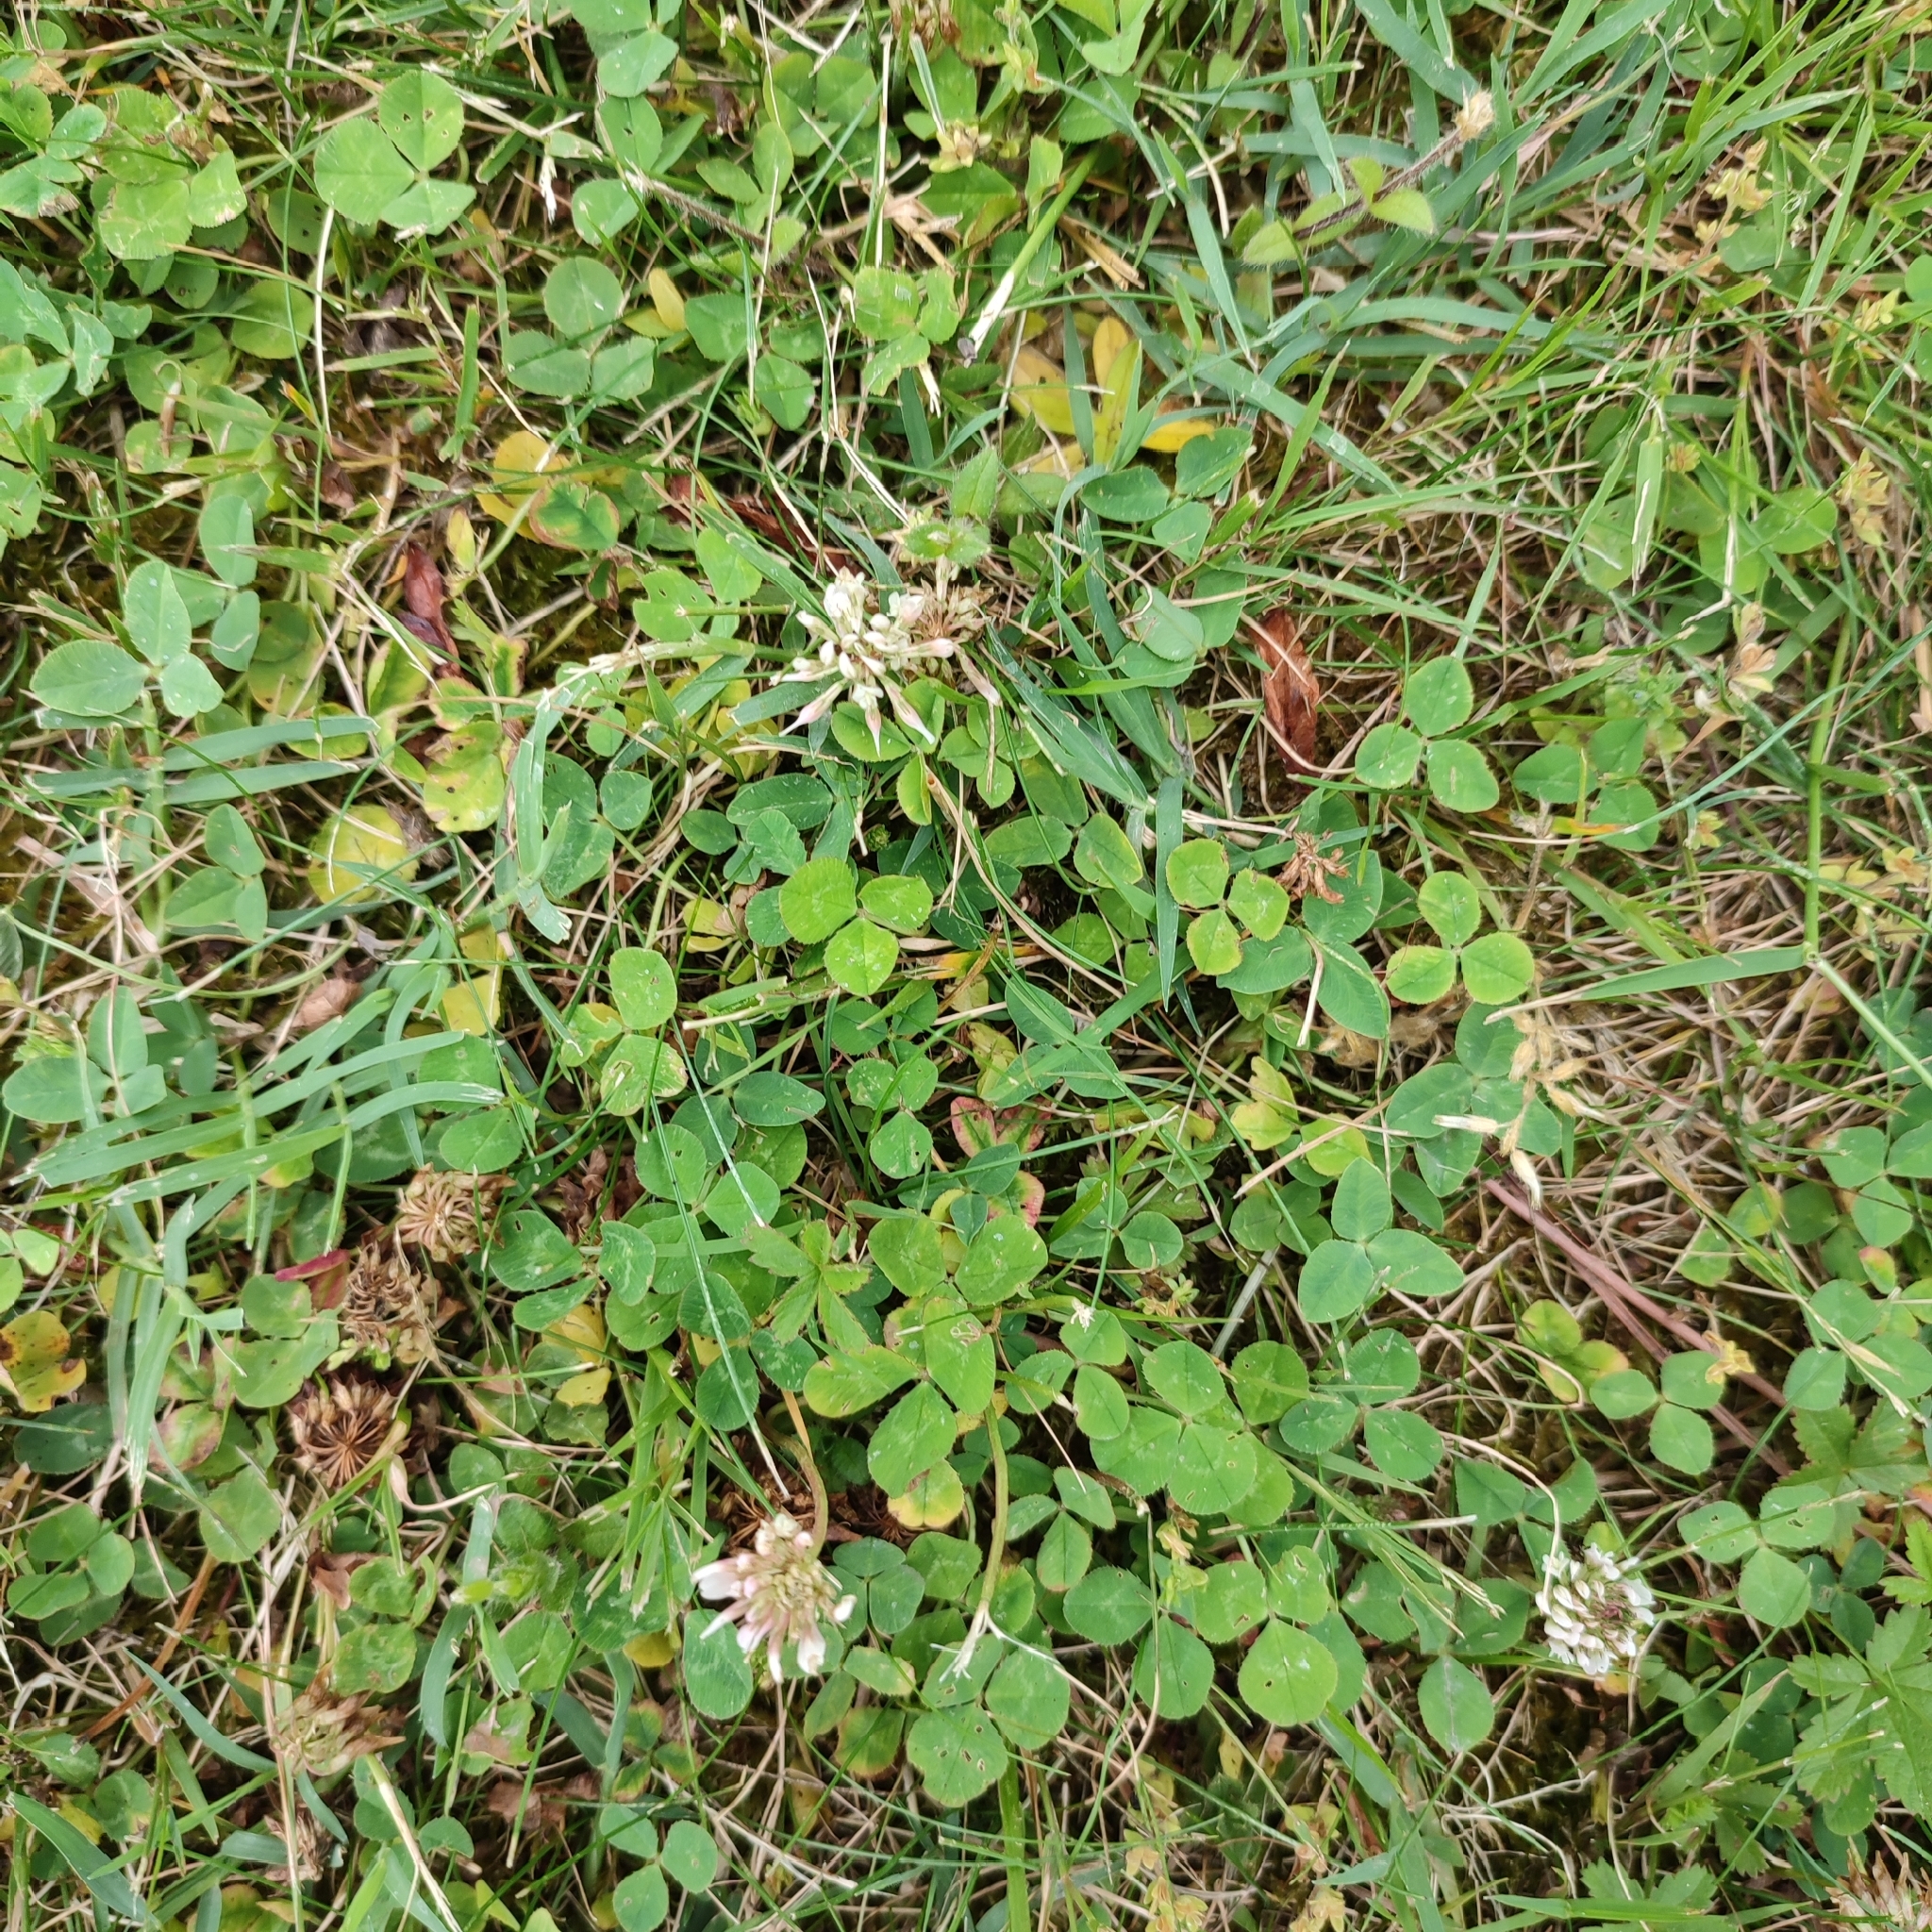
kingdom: Plantae
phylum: Tracheophyta
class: Magnoliopsida
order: Fabales
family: Fabaceae
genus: Trifolium
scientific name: Trifolium repens
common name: White clover
